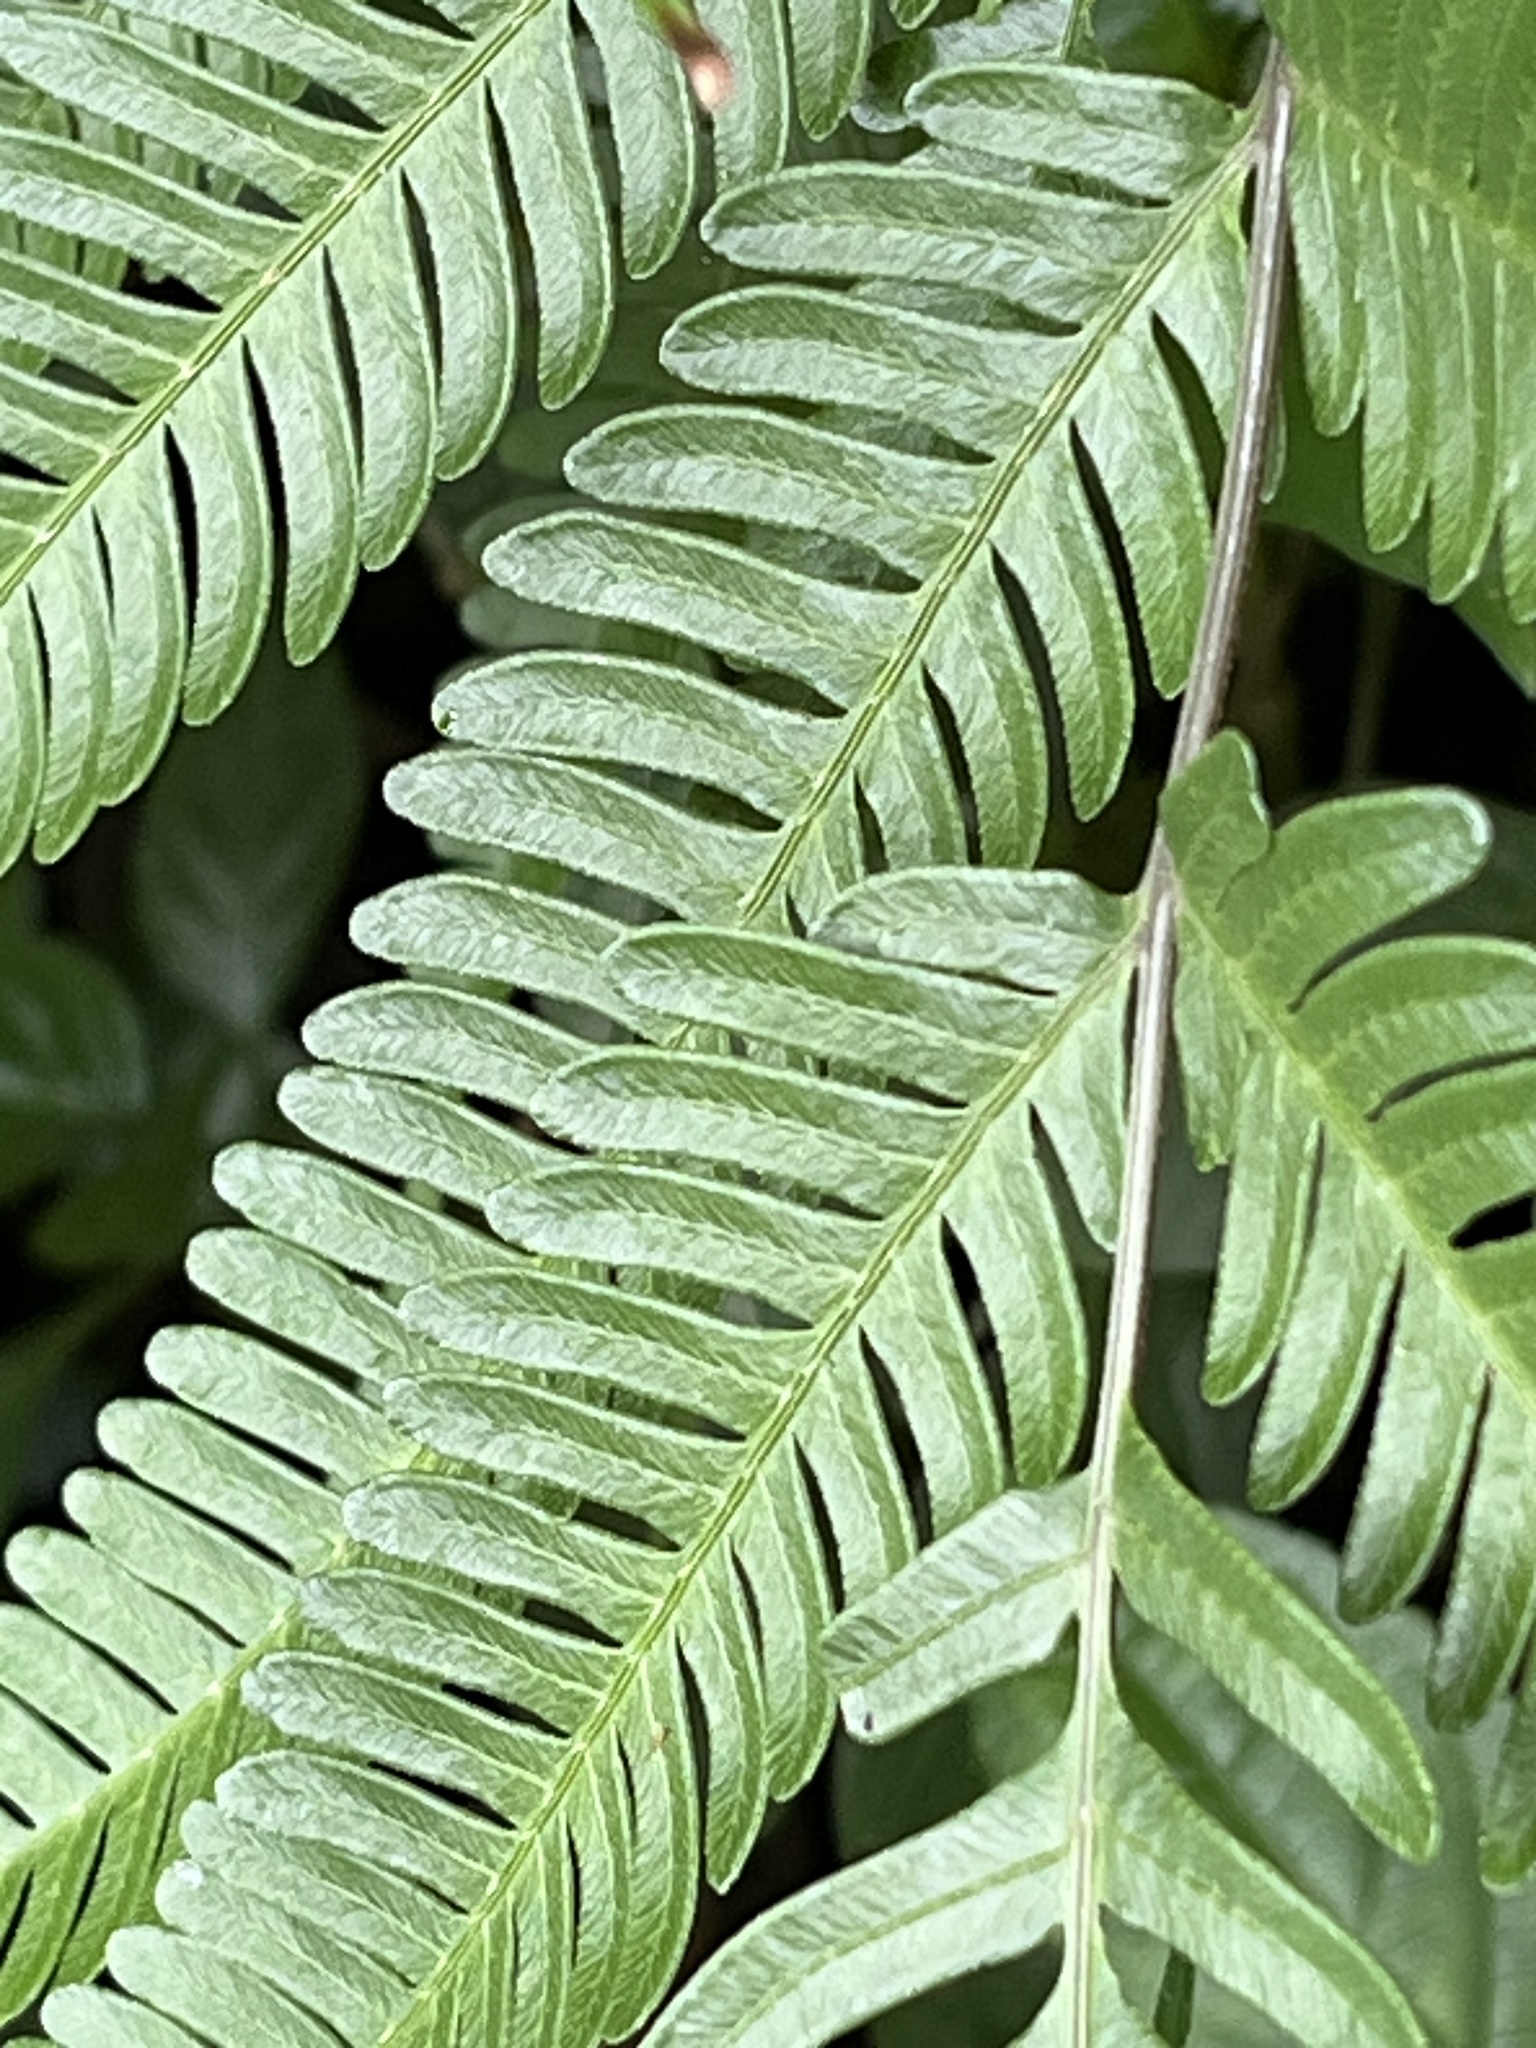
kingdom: Plantae
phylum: Tracheophyta
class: Polypodiopsida
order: Polypodiales
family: Pteridaceae
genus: Pteris
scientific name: Pteris fauriei
